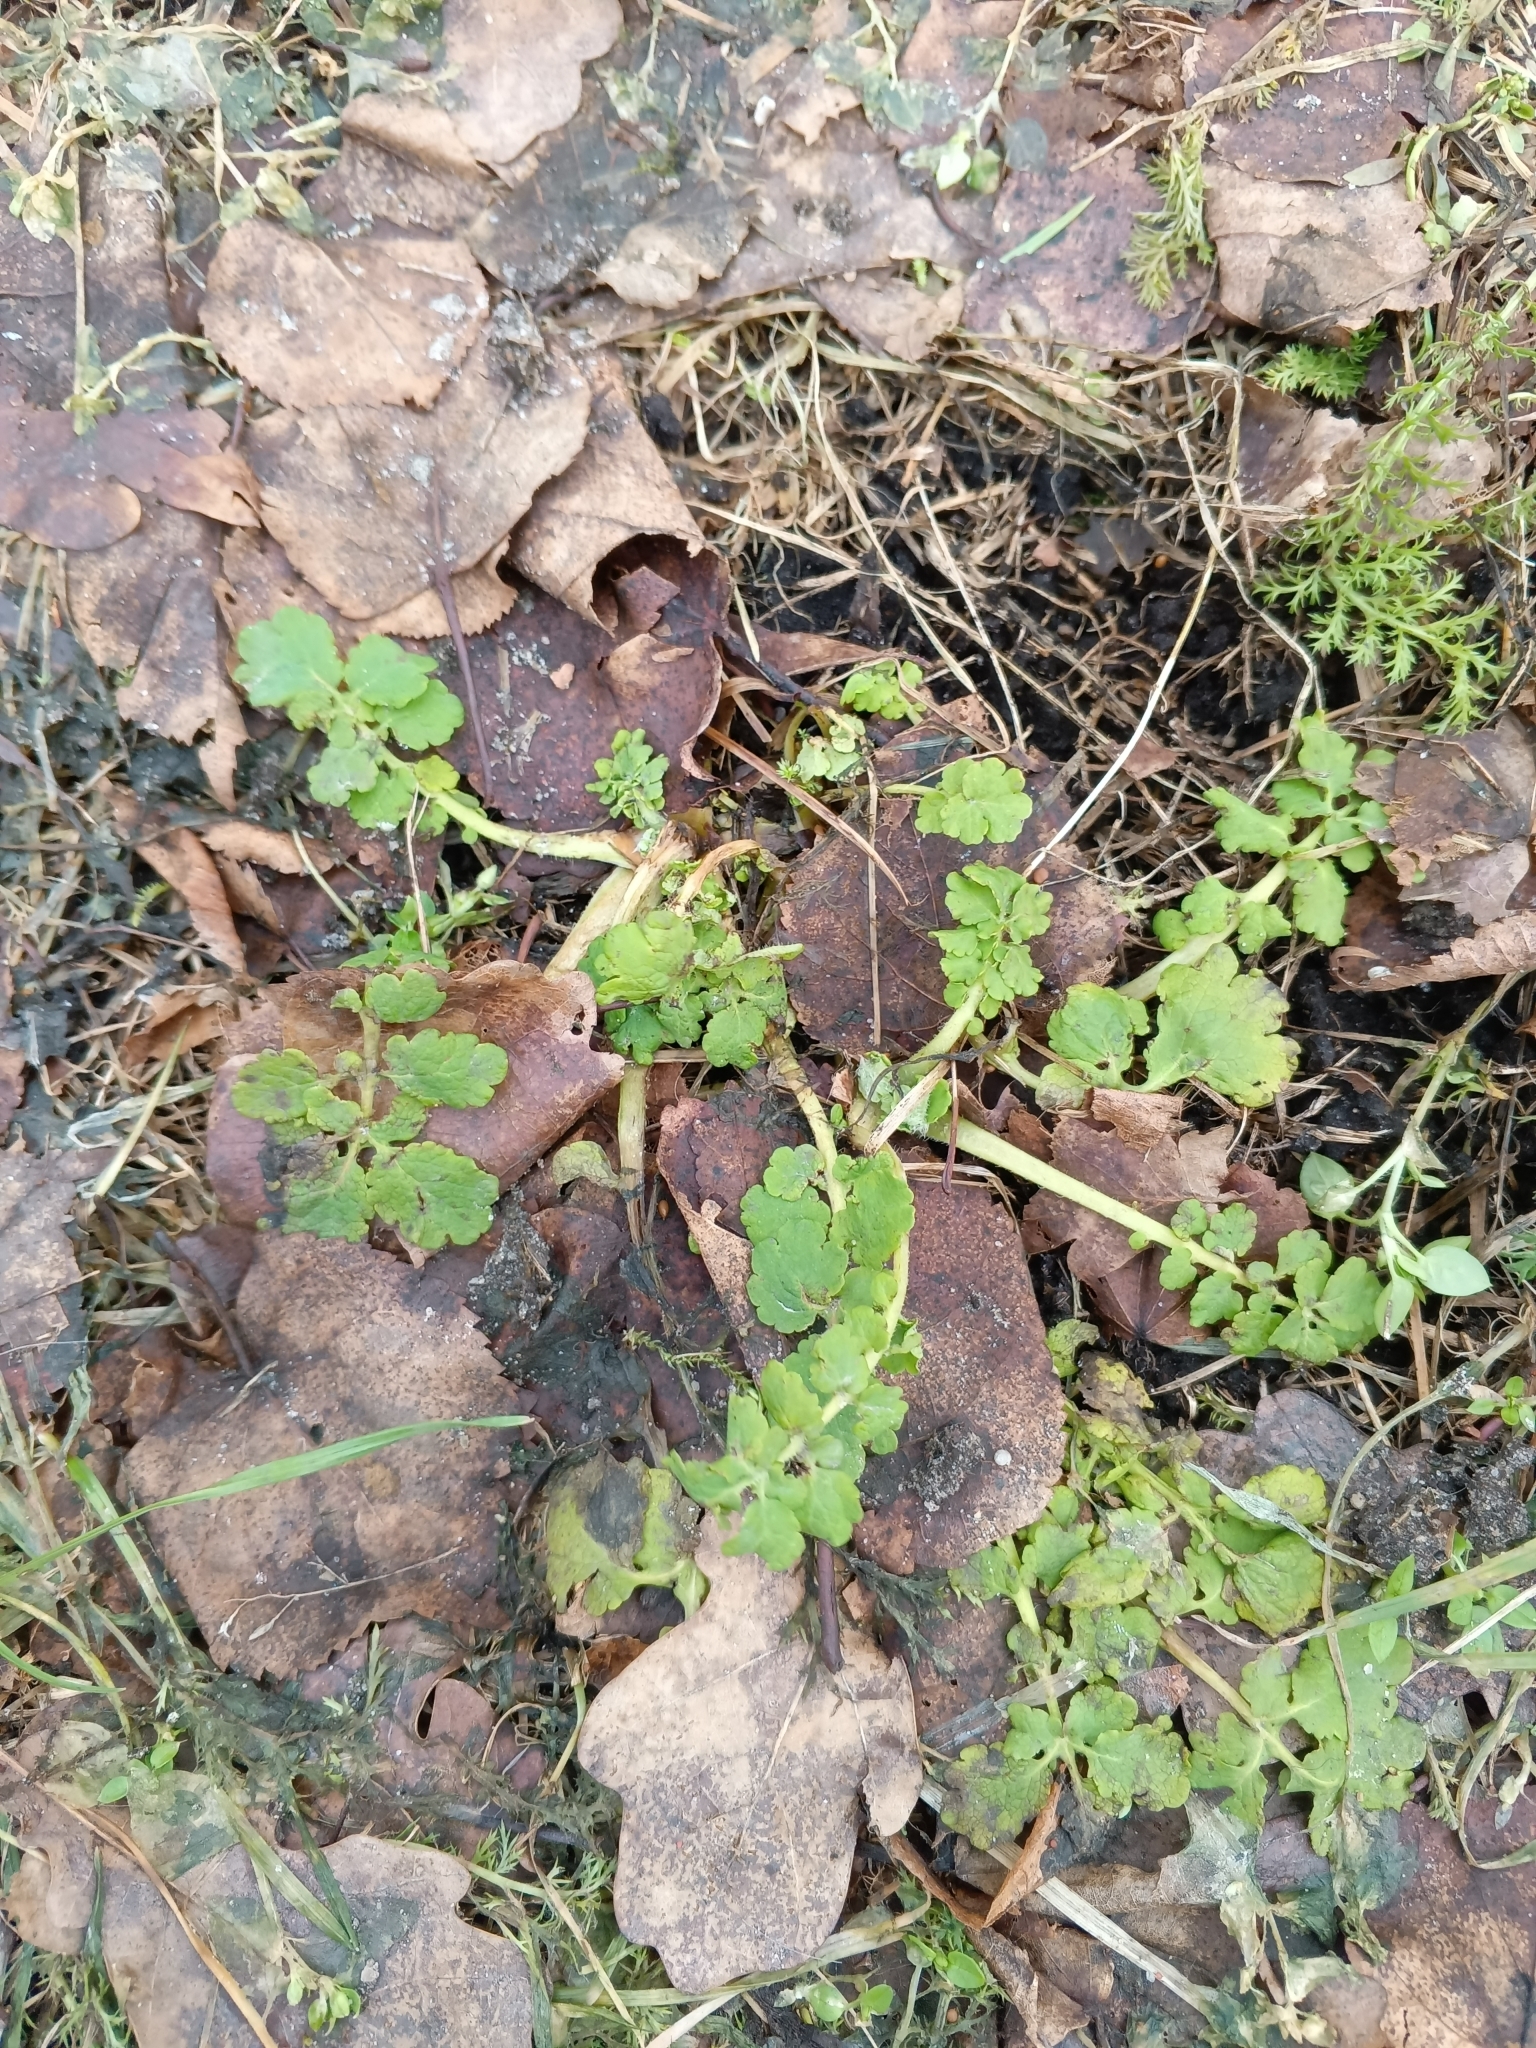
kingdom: Plantae
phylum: Tracheophyta
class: Magnoliopsida
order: Ranunculales
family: Papaveraceae
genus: Chelidonium
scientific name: Chelidonium majus
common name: Greater celandine
